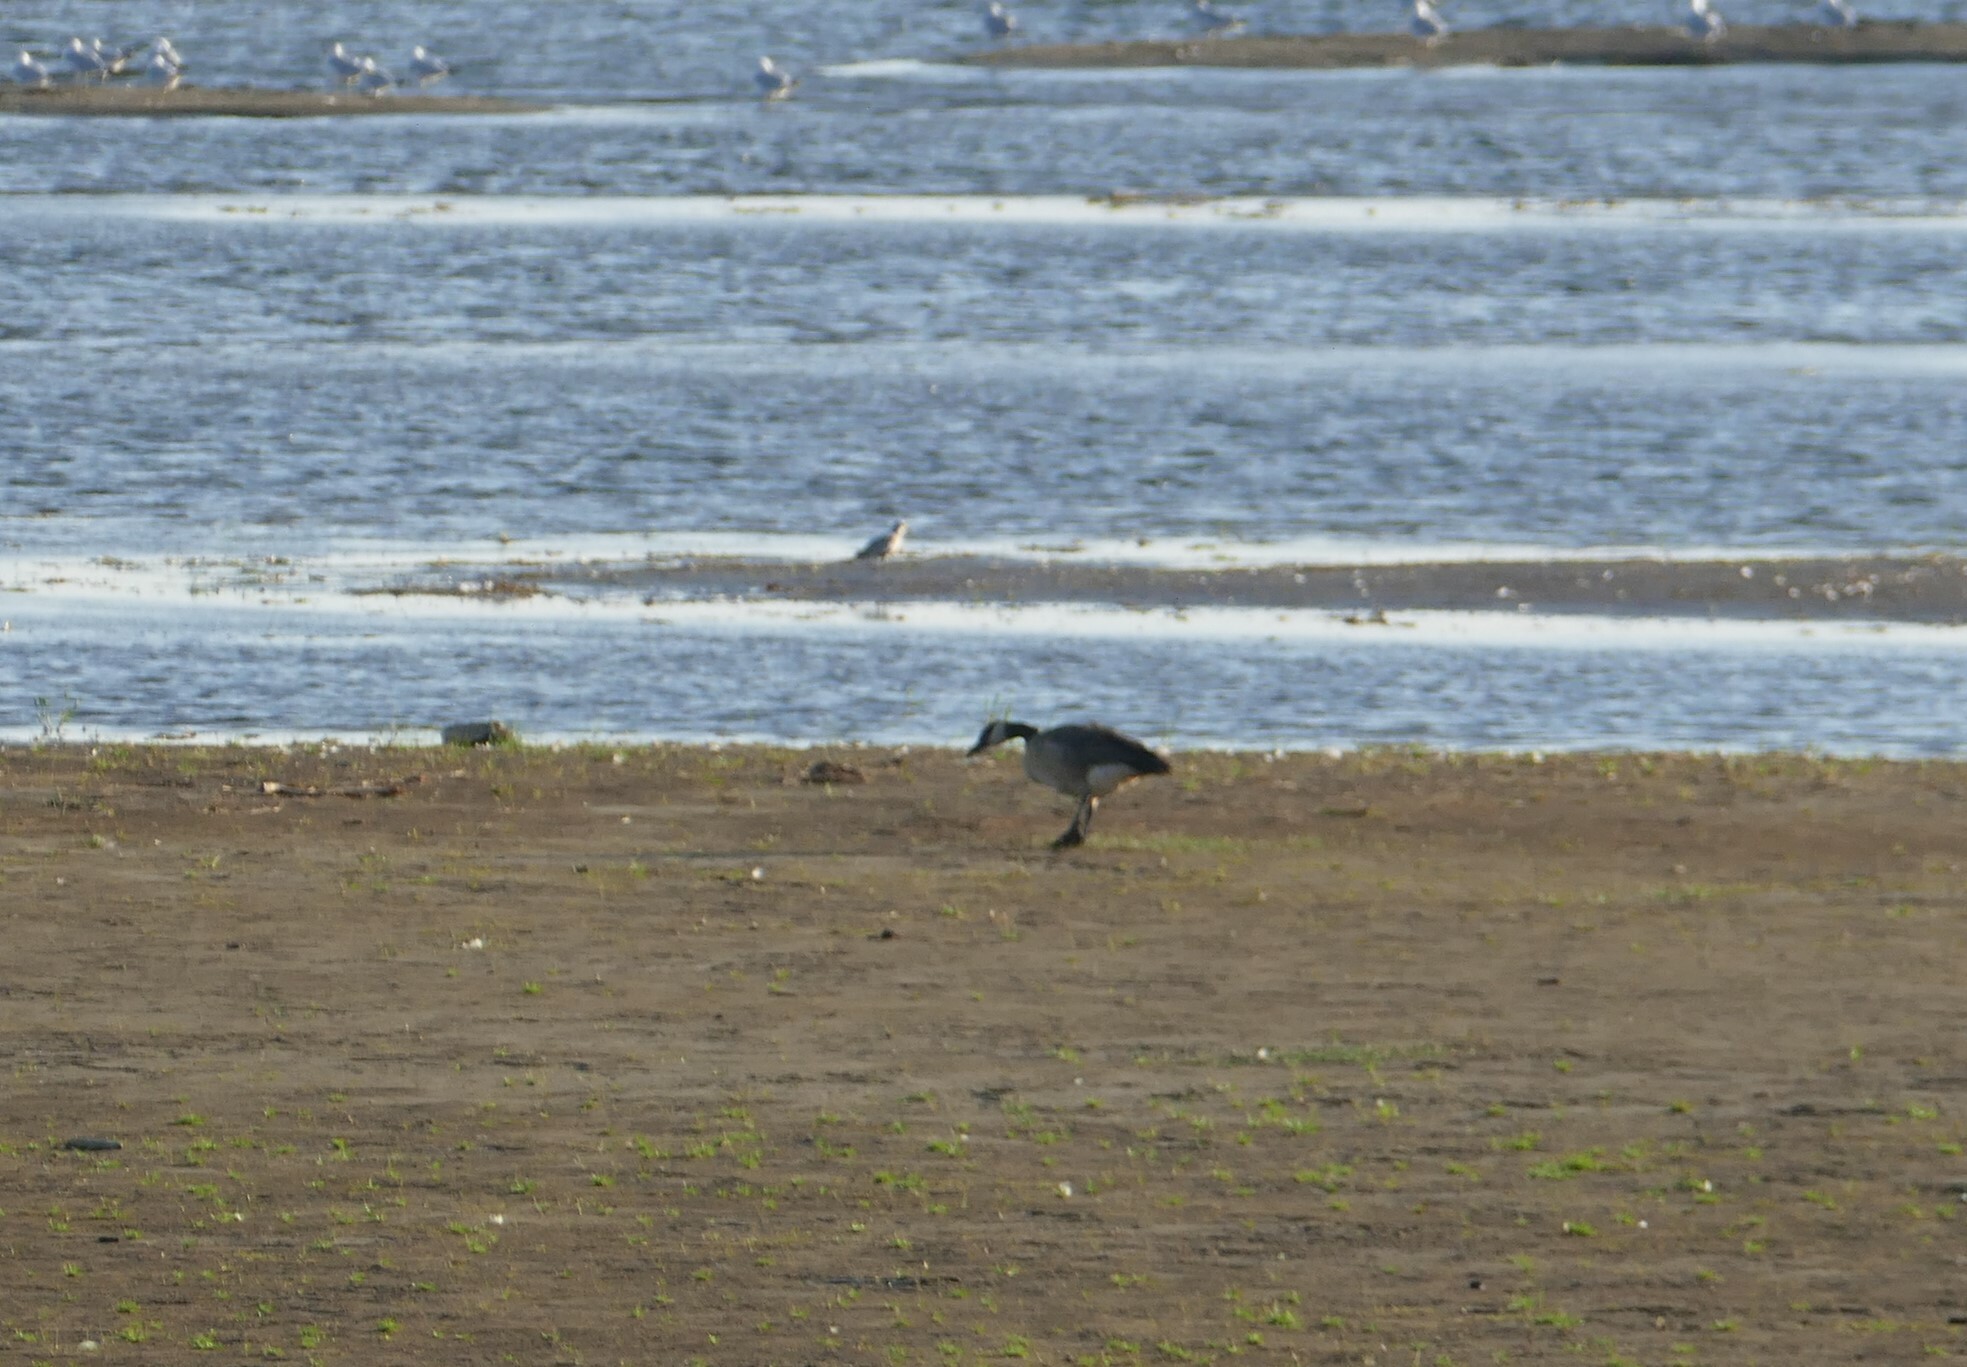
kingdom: Animalia
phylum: Chordata
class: Aves
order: Anseriformes
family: Anatidae
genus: Branta
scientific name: Branta canadensis
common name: Canada goose
